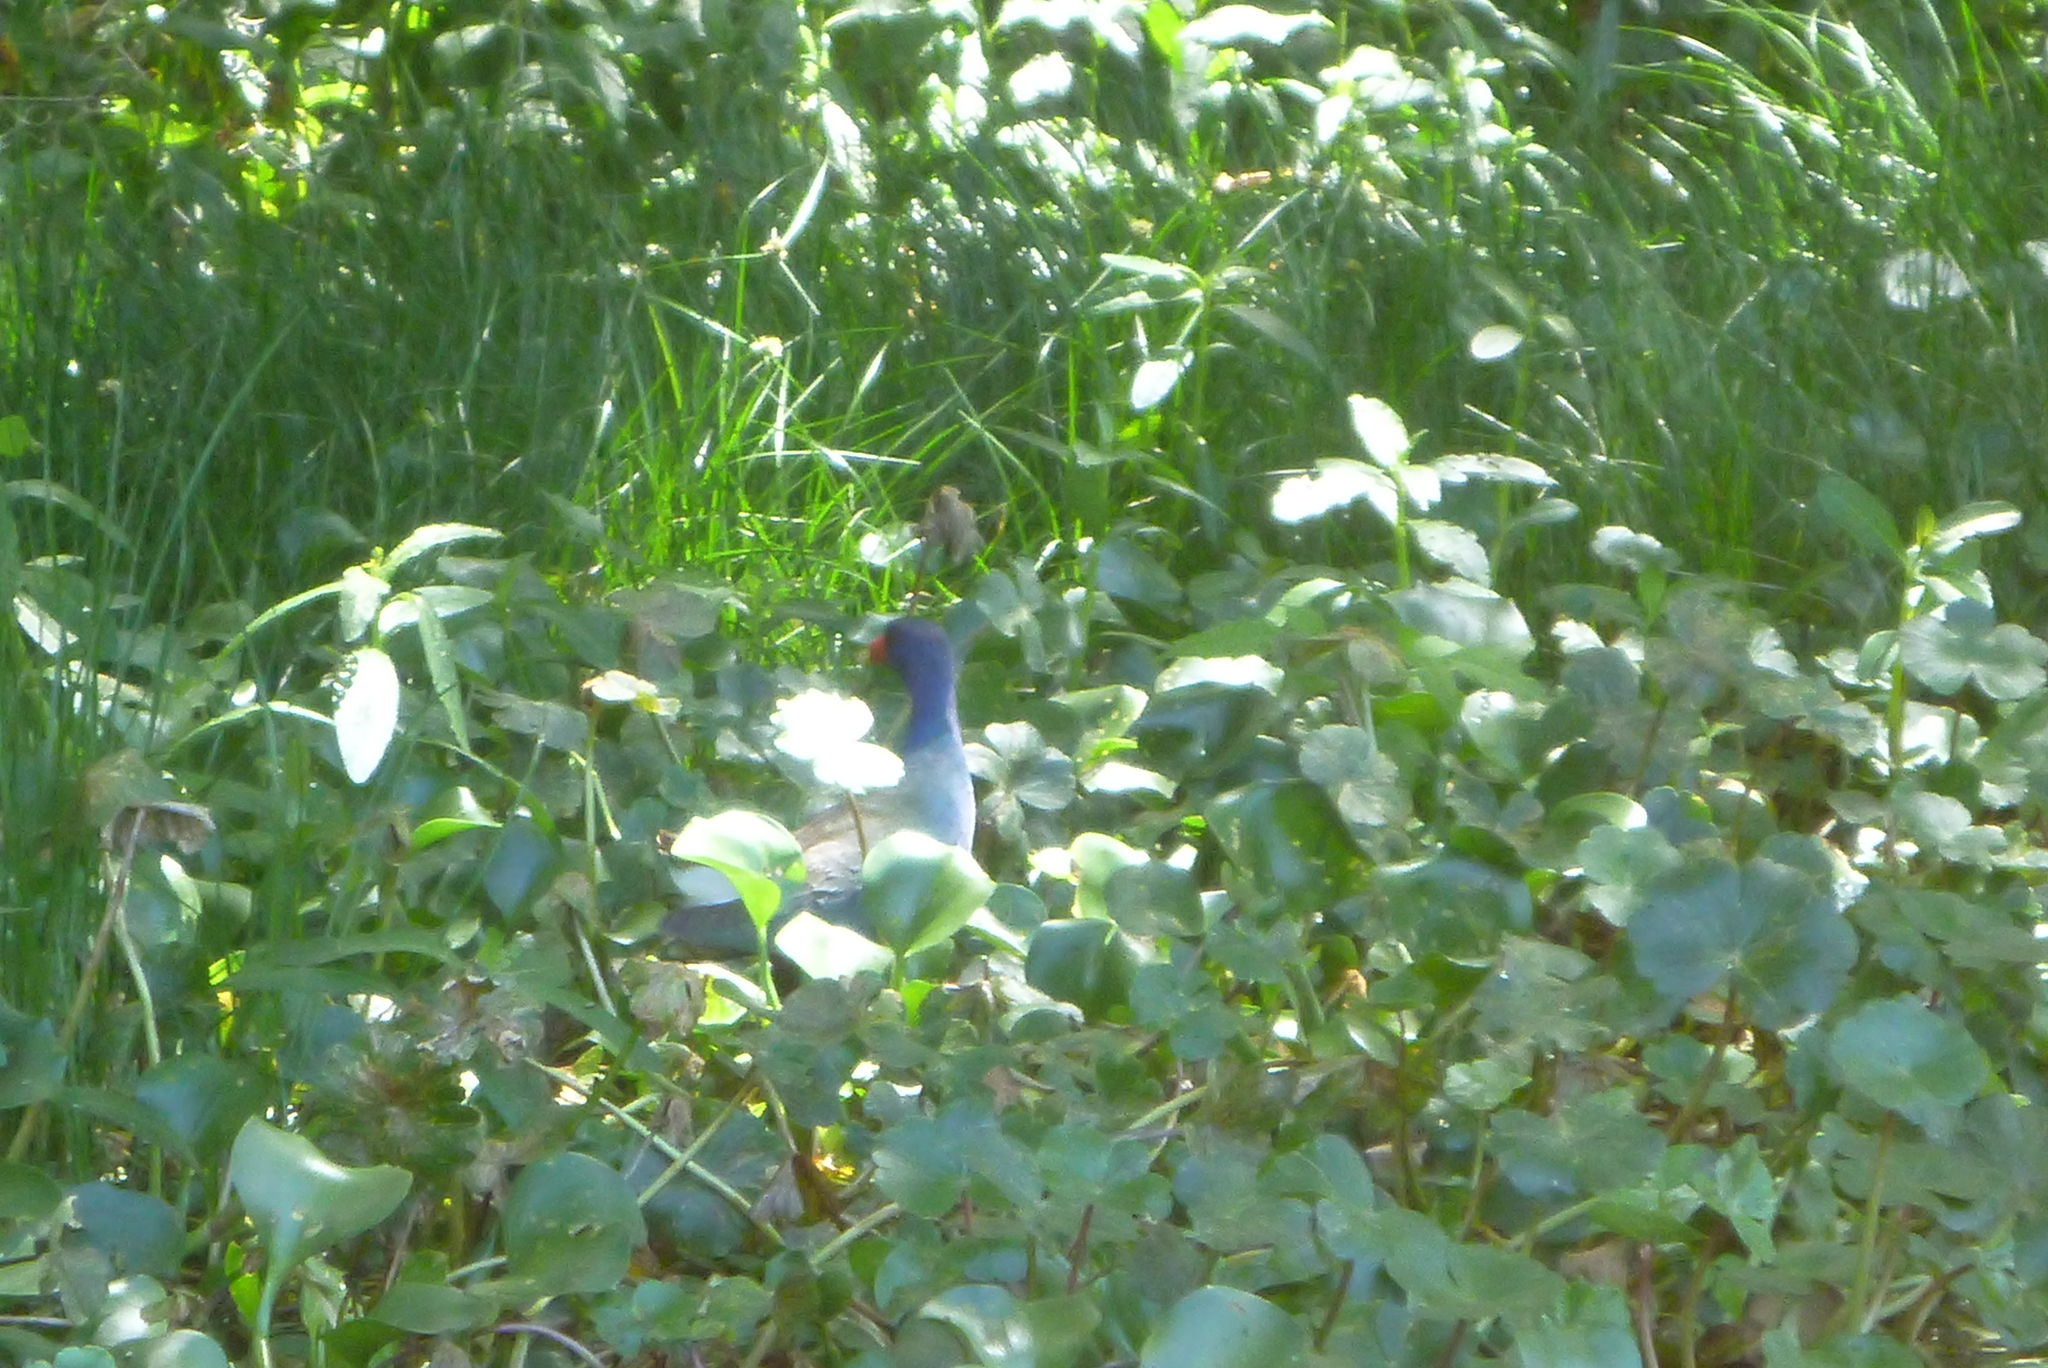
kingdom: Animalia
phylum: Chordata
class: Aves
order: Gruiformes
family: Rallidae
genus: Porphyrio
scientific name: Porphyrio martinica
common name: Purple gallinule
